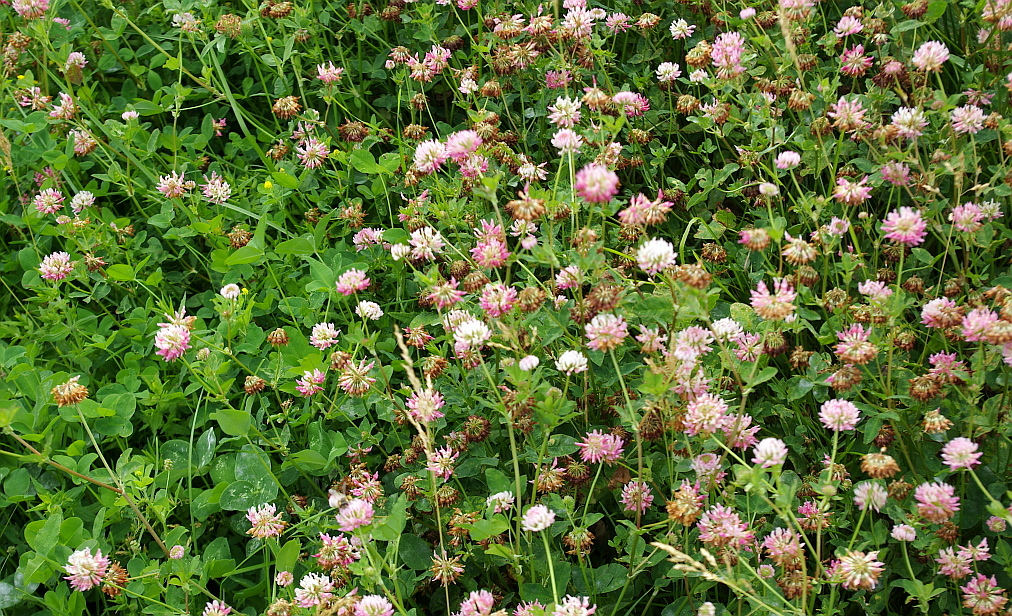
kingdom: Plantae
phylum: Tracheophyta
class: Magnoliopsida
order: Fabales
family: Fabaceae
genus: Trifolium
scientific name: Trifolium hybridum
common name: Alsike clover
